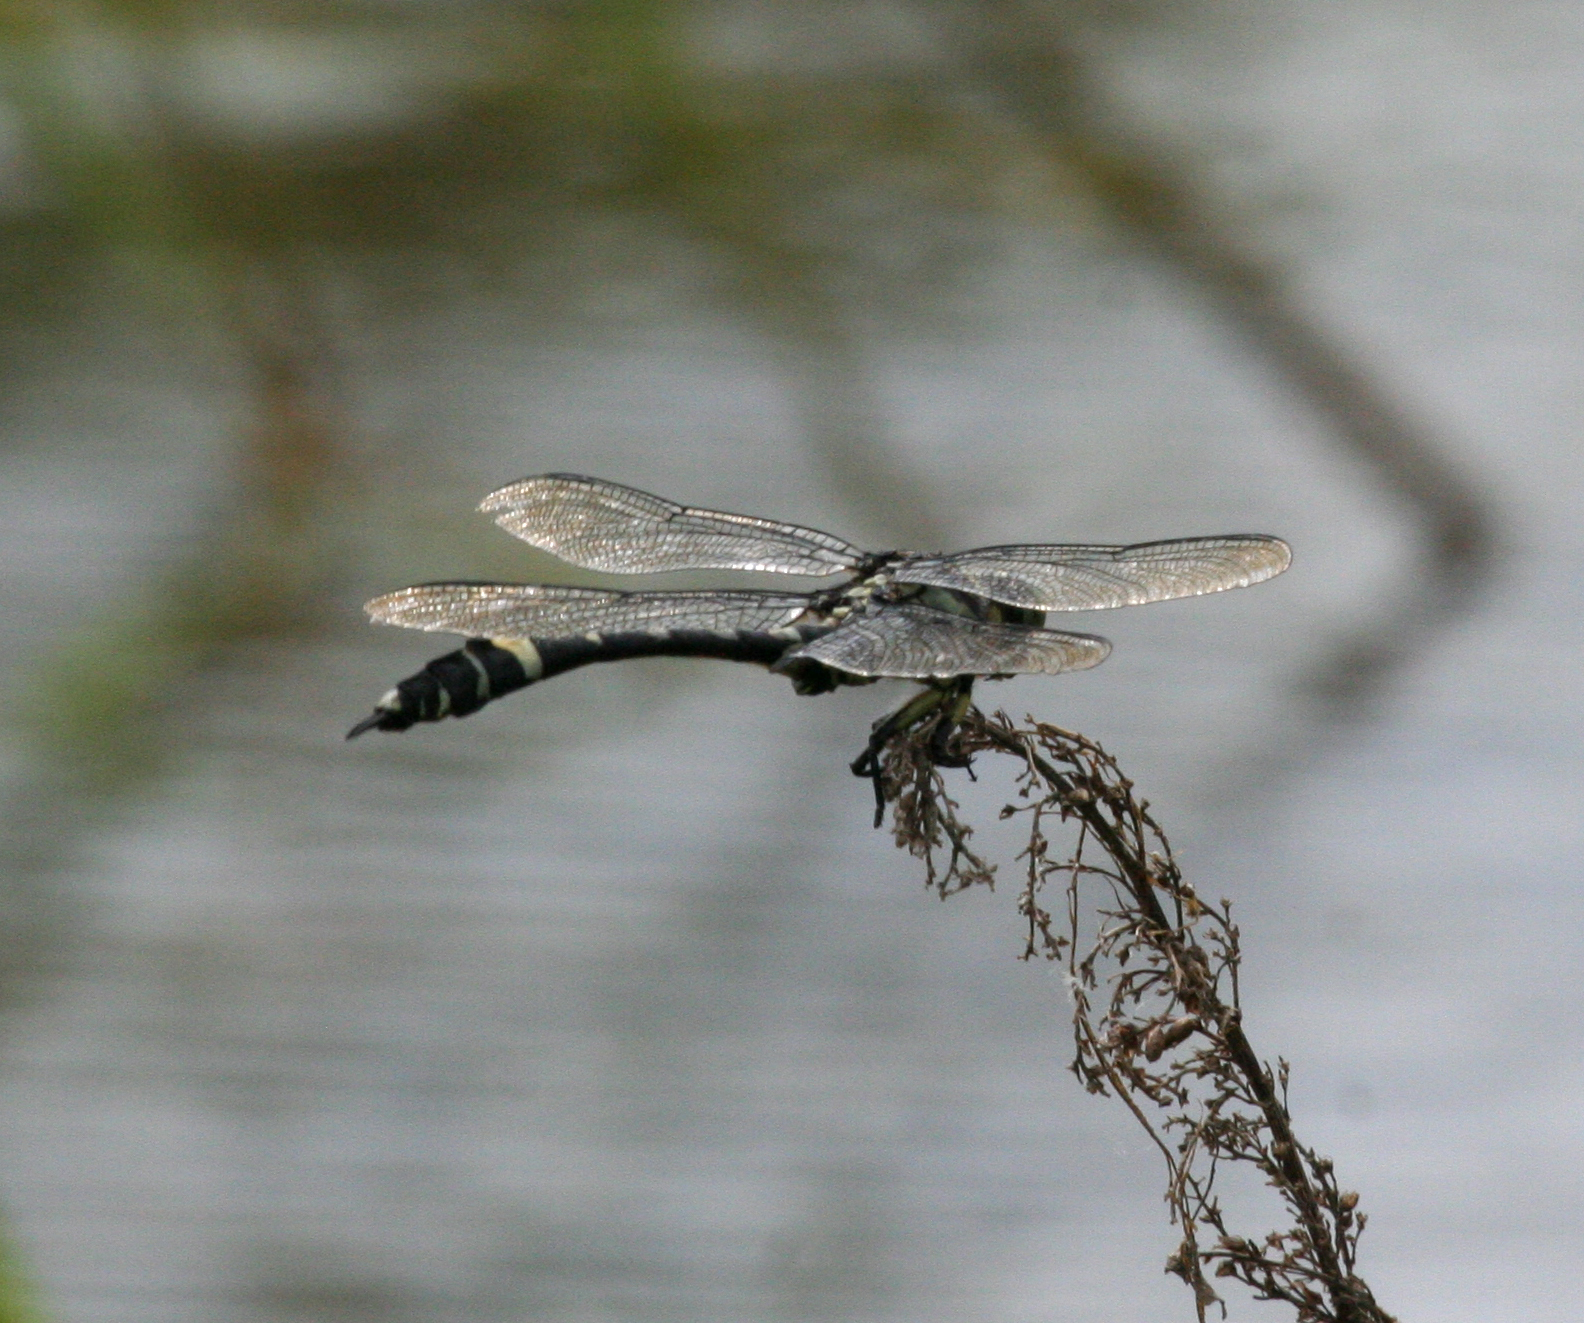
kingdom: Animalia
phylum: Arthropoda
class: Insecta
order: Odonata
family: Gomphidae
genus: Gomphidia
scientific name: Gomphidia confluens
